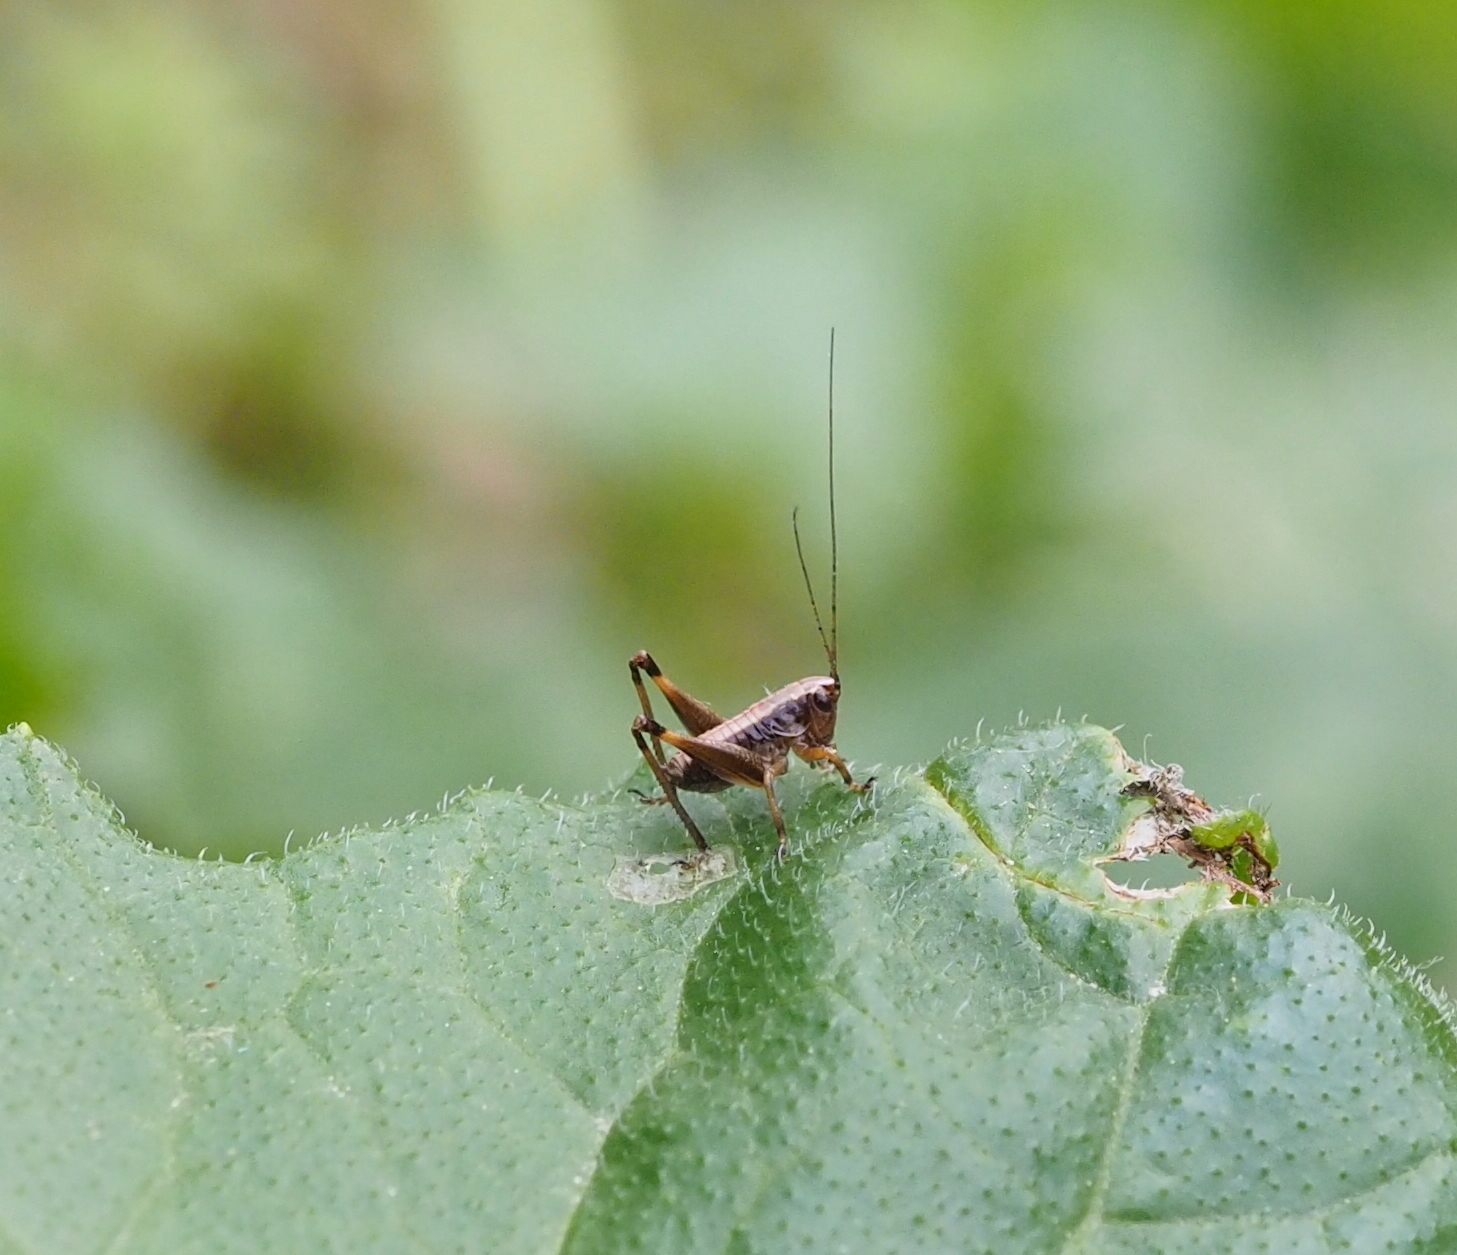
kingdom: Animalia
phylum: Arthropoda
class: Insecta
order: Orthoptera
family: Tettigoniidae
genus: Pholidoptera
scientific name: Pholidoptera griseoaptera
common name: Dark bush-cricket
